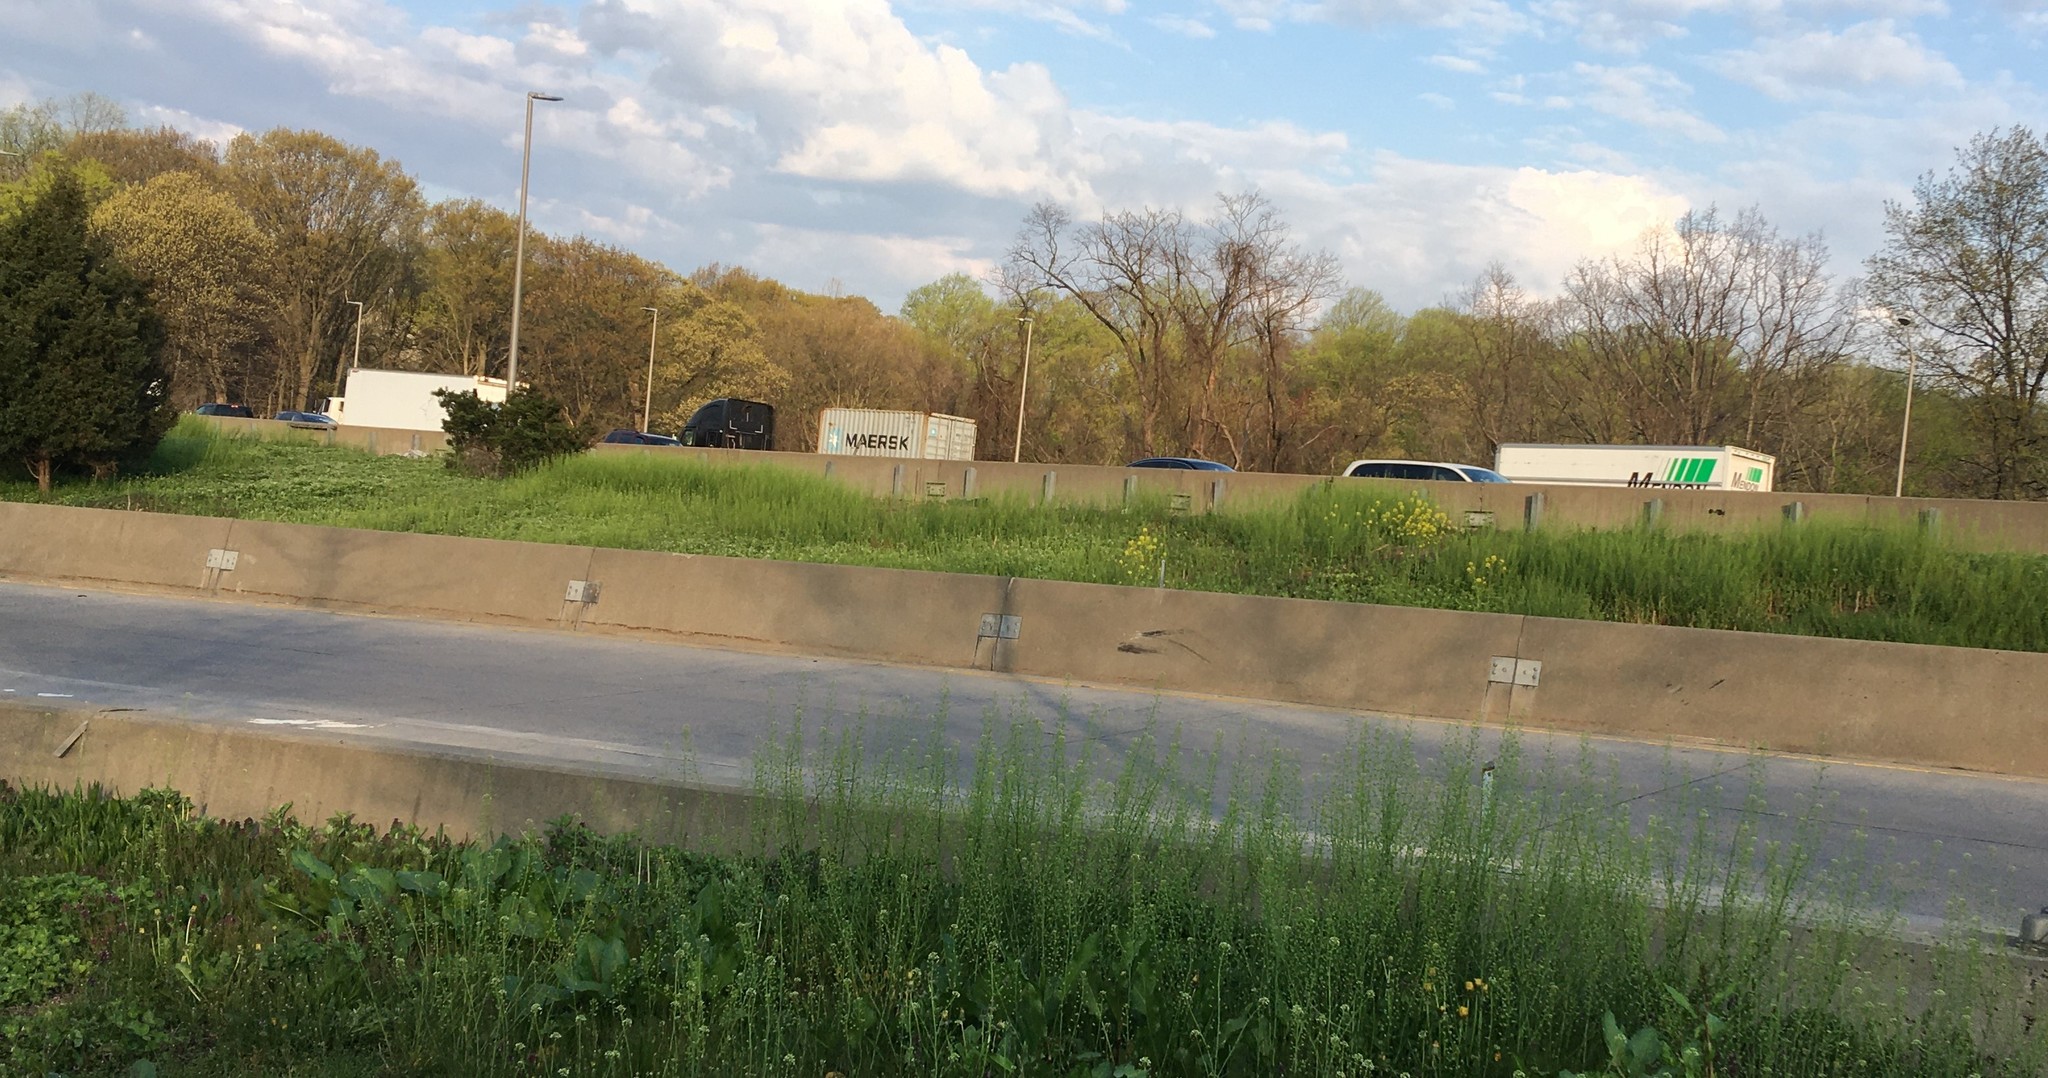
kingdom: Plantae
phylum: Tracheophyta
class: Magnoliopsida
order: Brassicales
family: Brassicaceae
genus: Mummenhoffia
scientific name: Mummenhoffia alliacea
